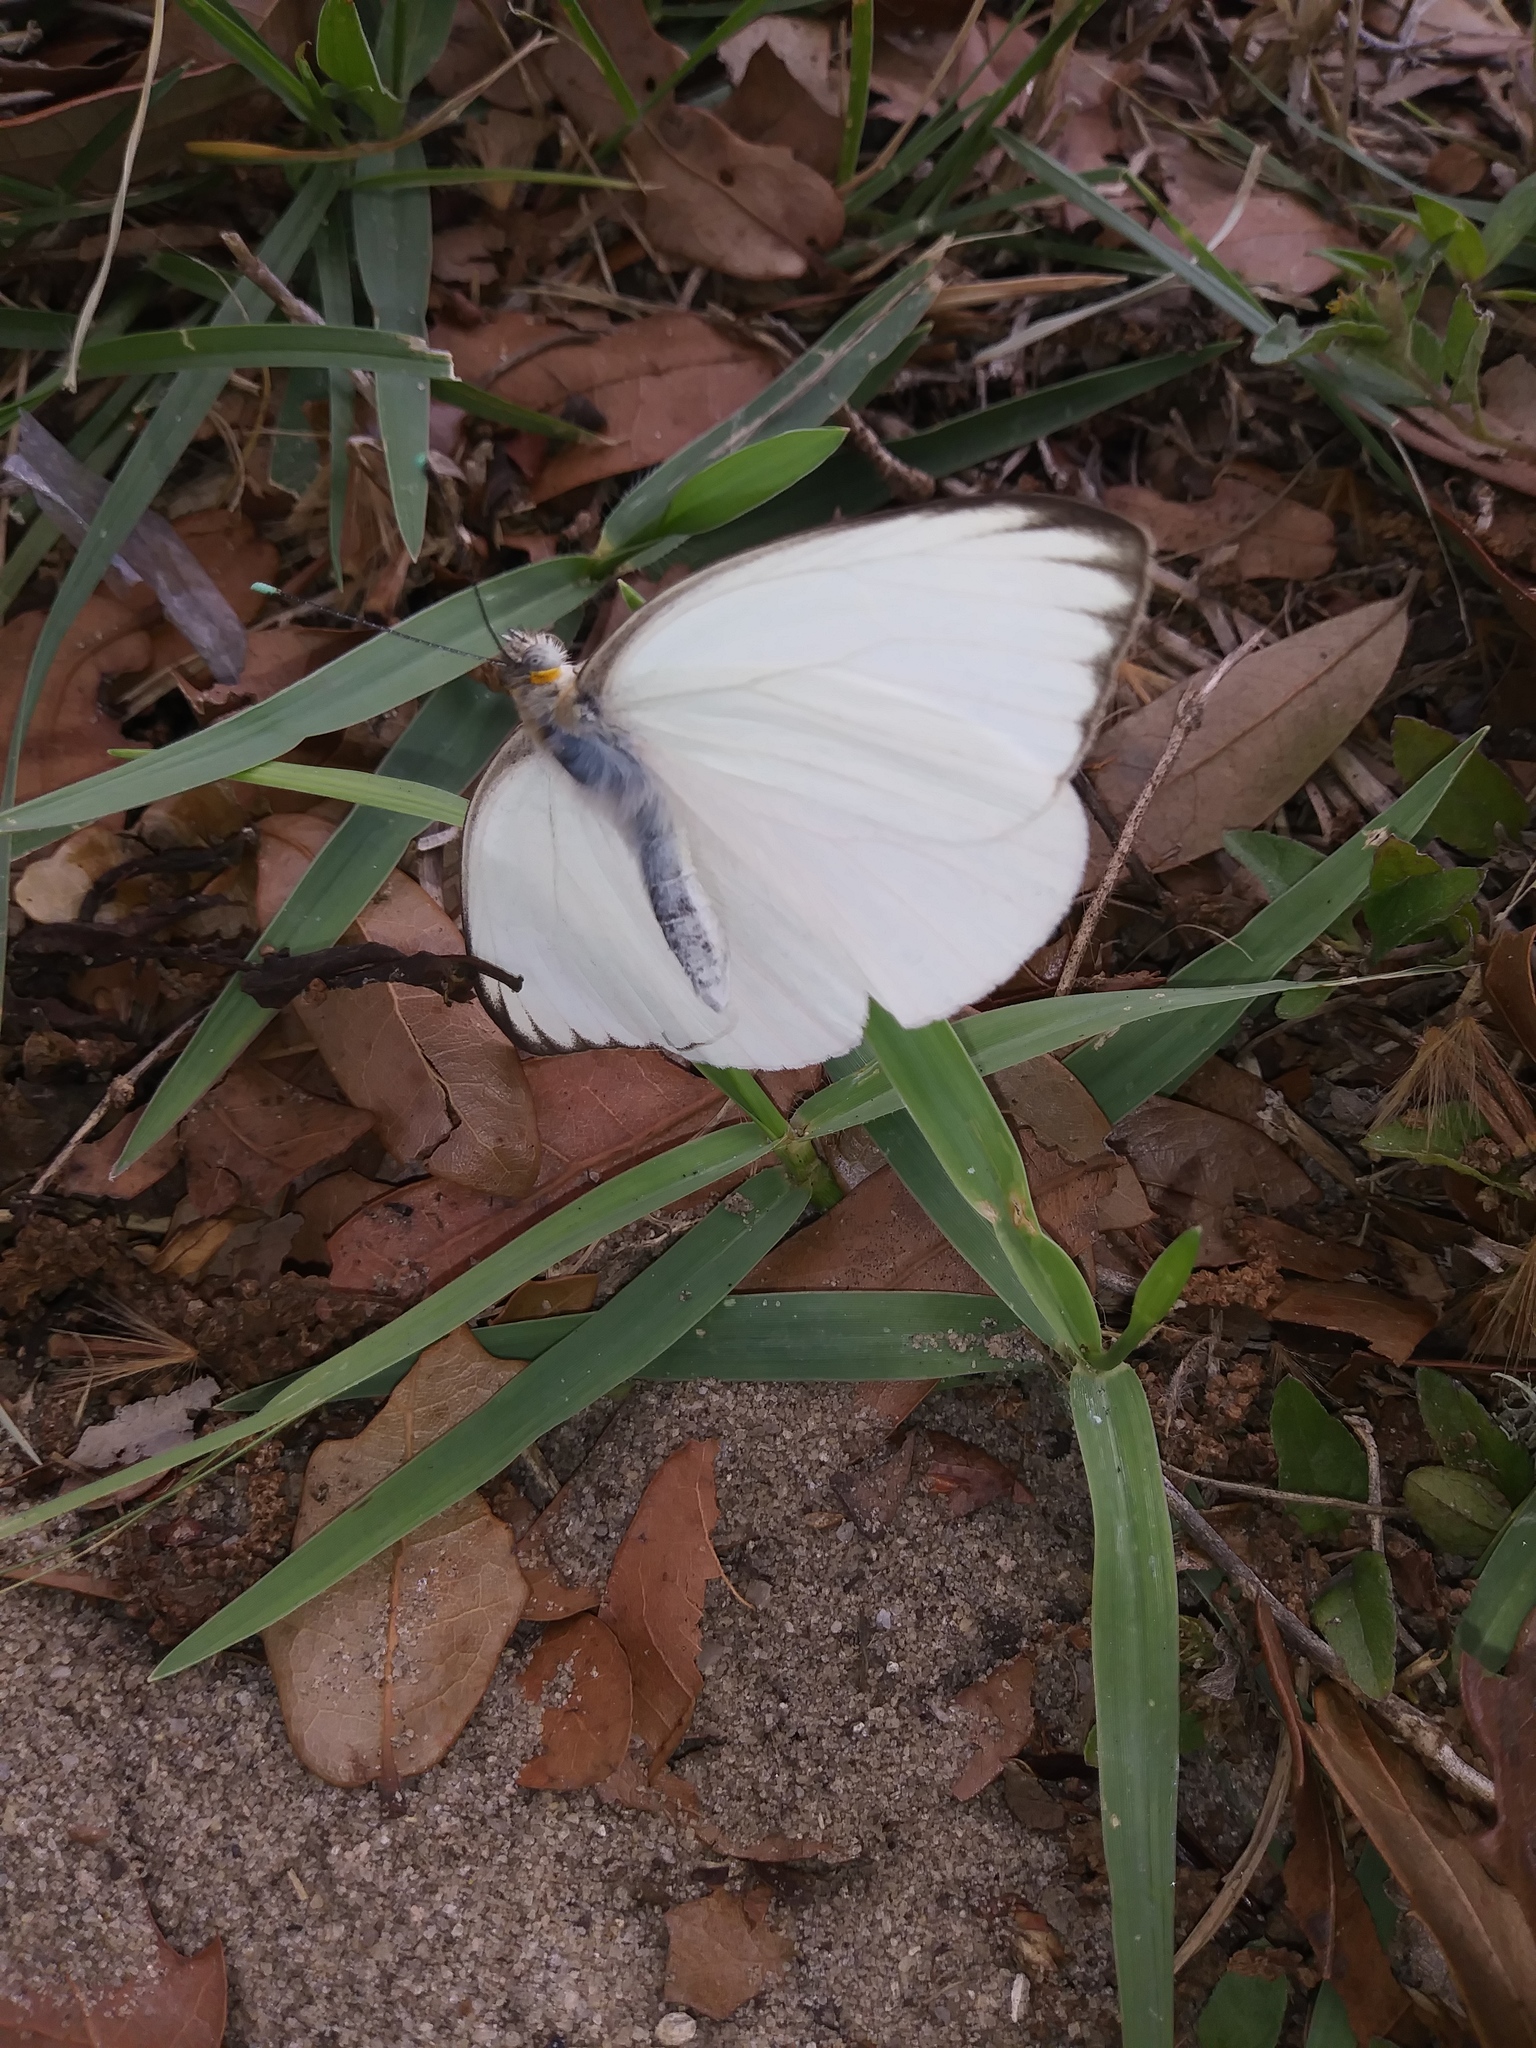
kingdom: Animalia
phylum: Arthropoda
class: Insecta
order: Lepidoptera
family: Pieridae
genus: Ascia
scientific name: Ascia monuste
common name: Great southern white
